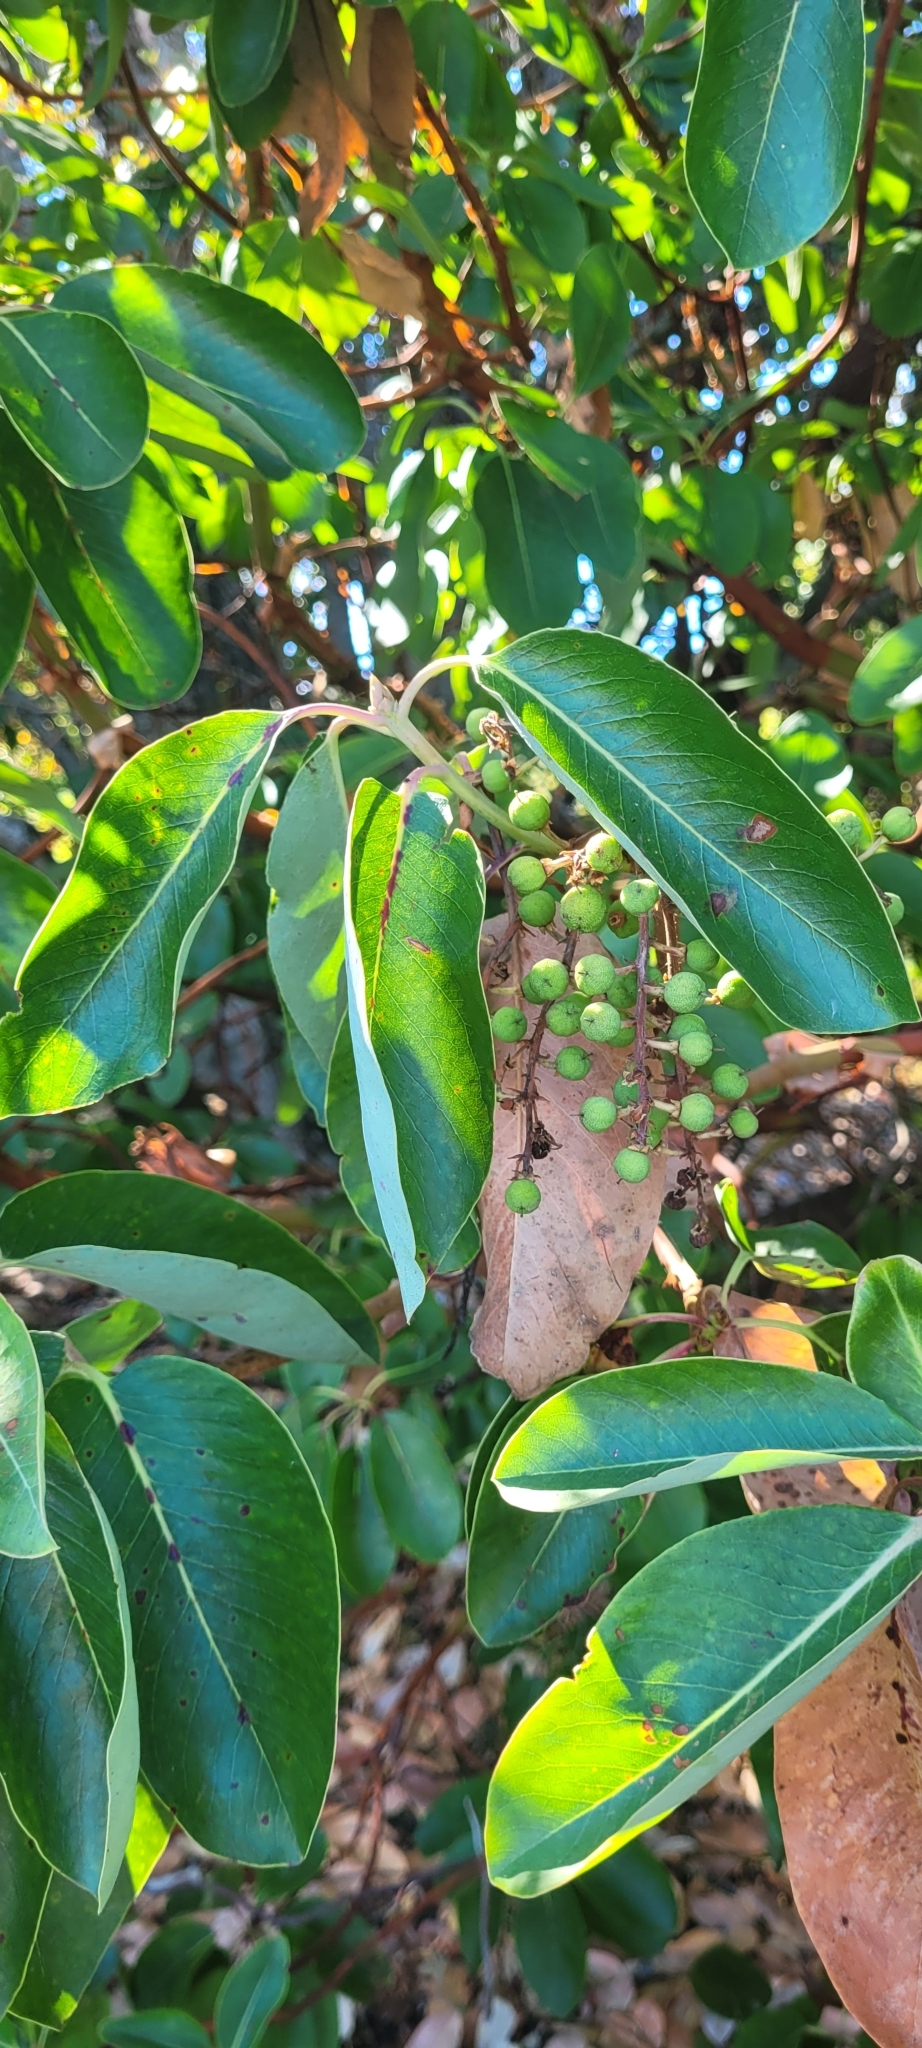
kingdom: Plantae
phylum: Tracheophyta
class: Magnoliopsida
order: Ericales
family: Ericaceae
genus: Arbutus
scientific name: Arbutus menziesii
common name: Pacific madrone
